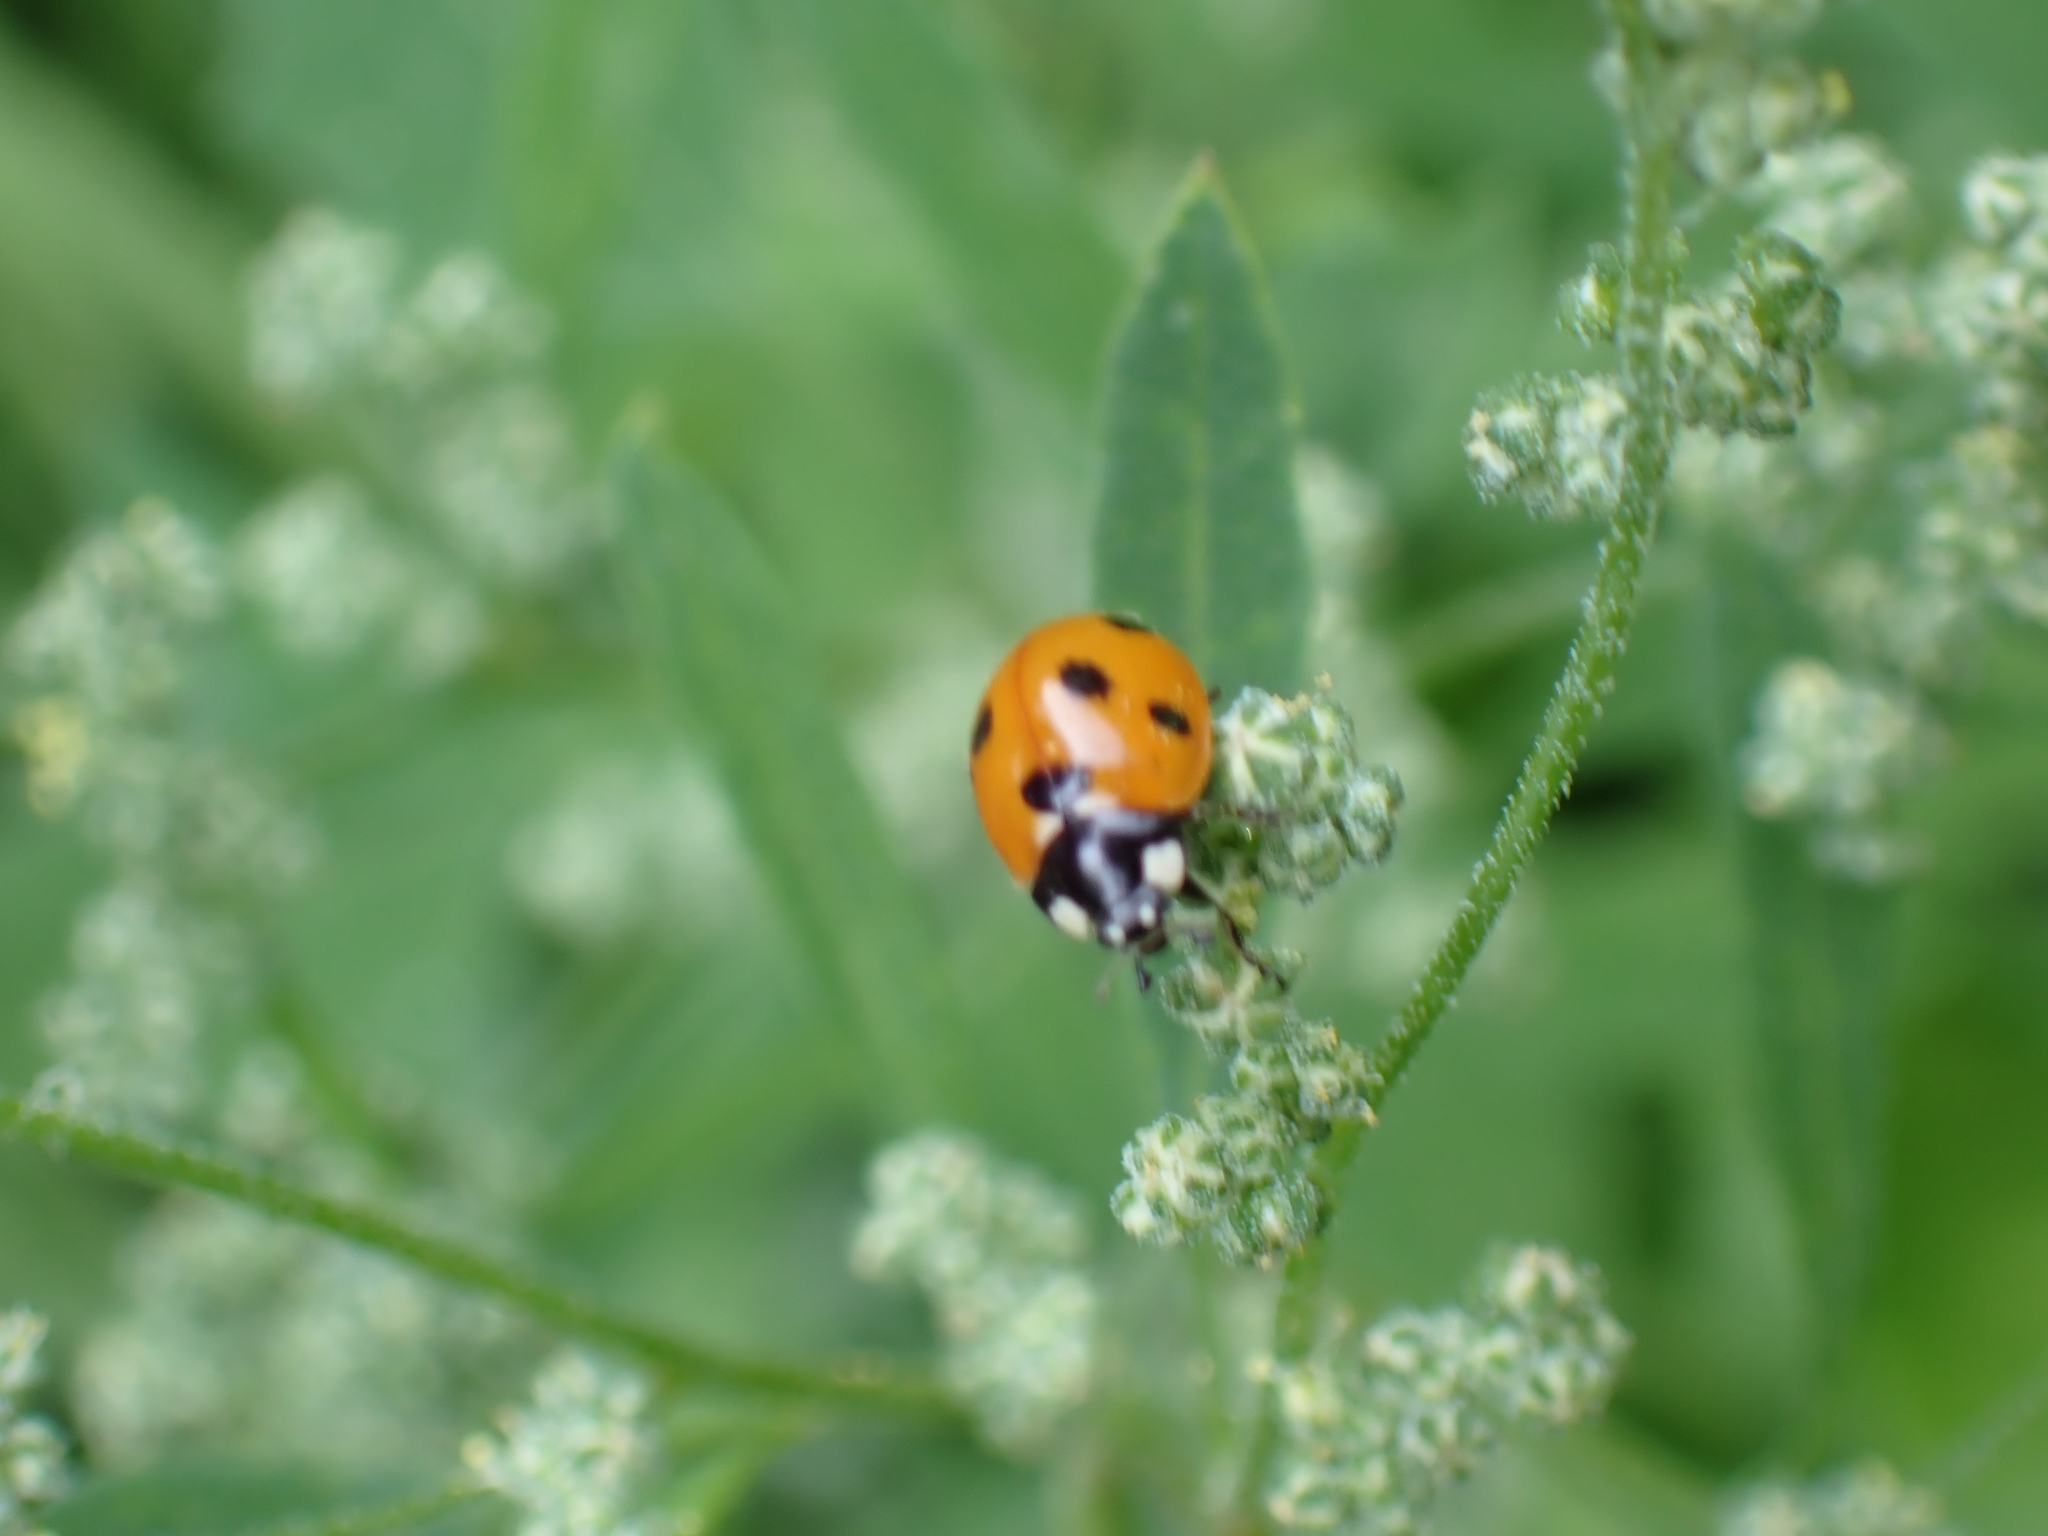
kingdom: Animalia
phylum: Arthropoda
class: Insecta
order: Coleoptera
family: Coccinellidae
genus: Coccinella
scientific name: Coccinella septempunctata
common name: Sevenspotted lady beetle
